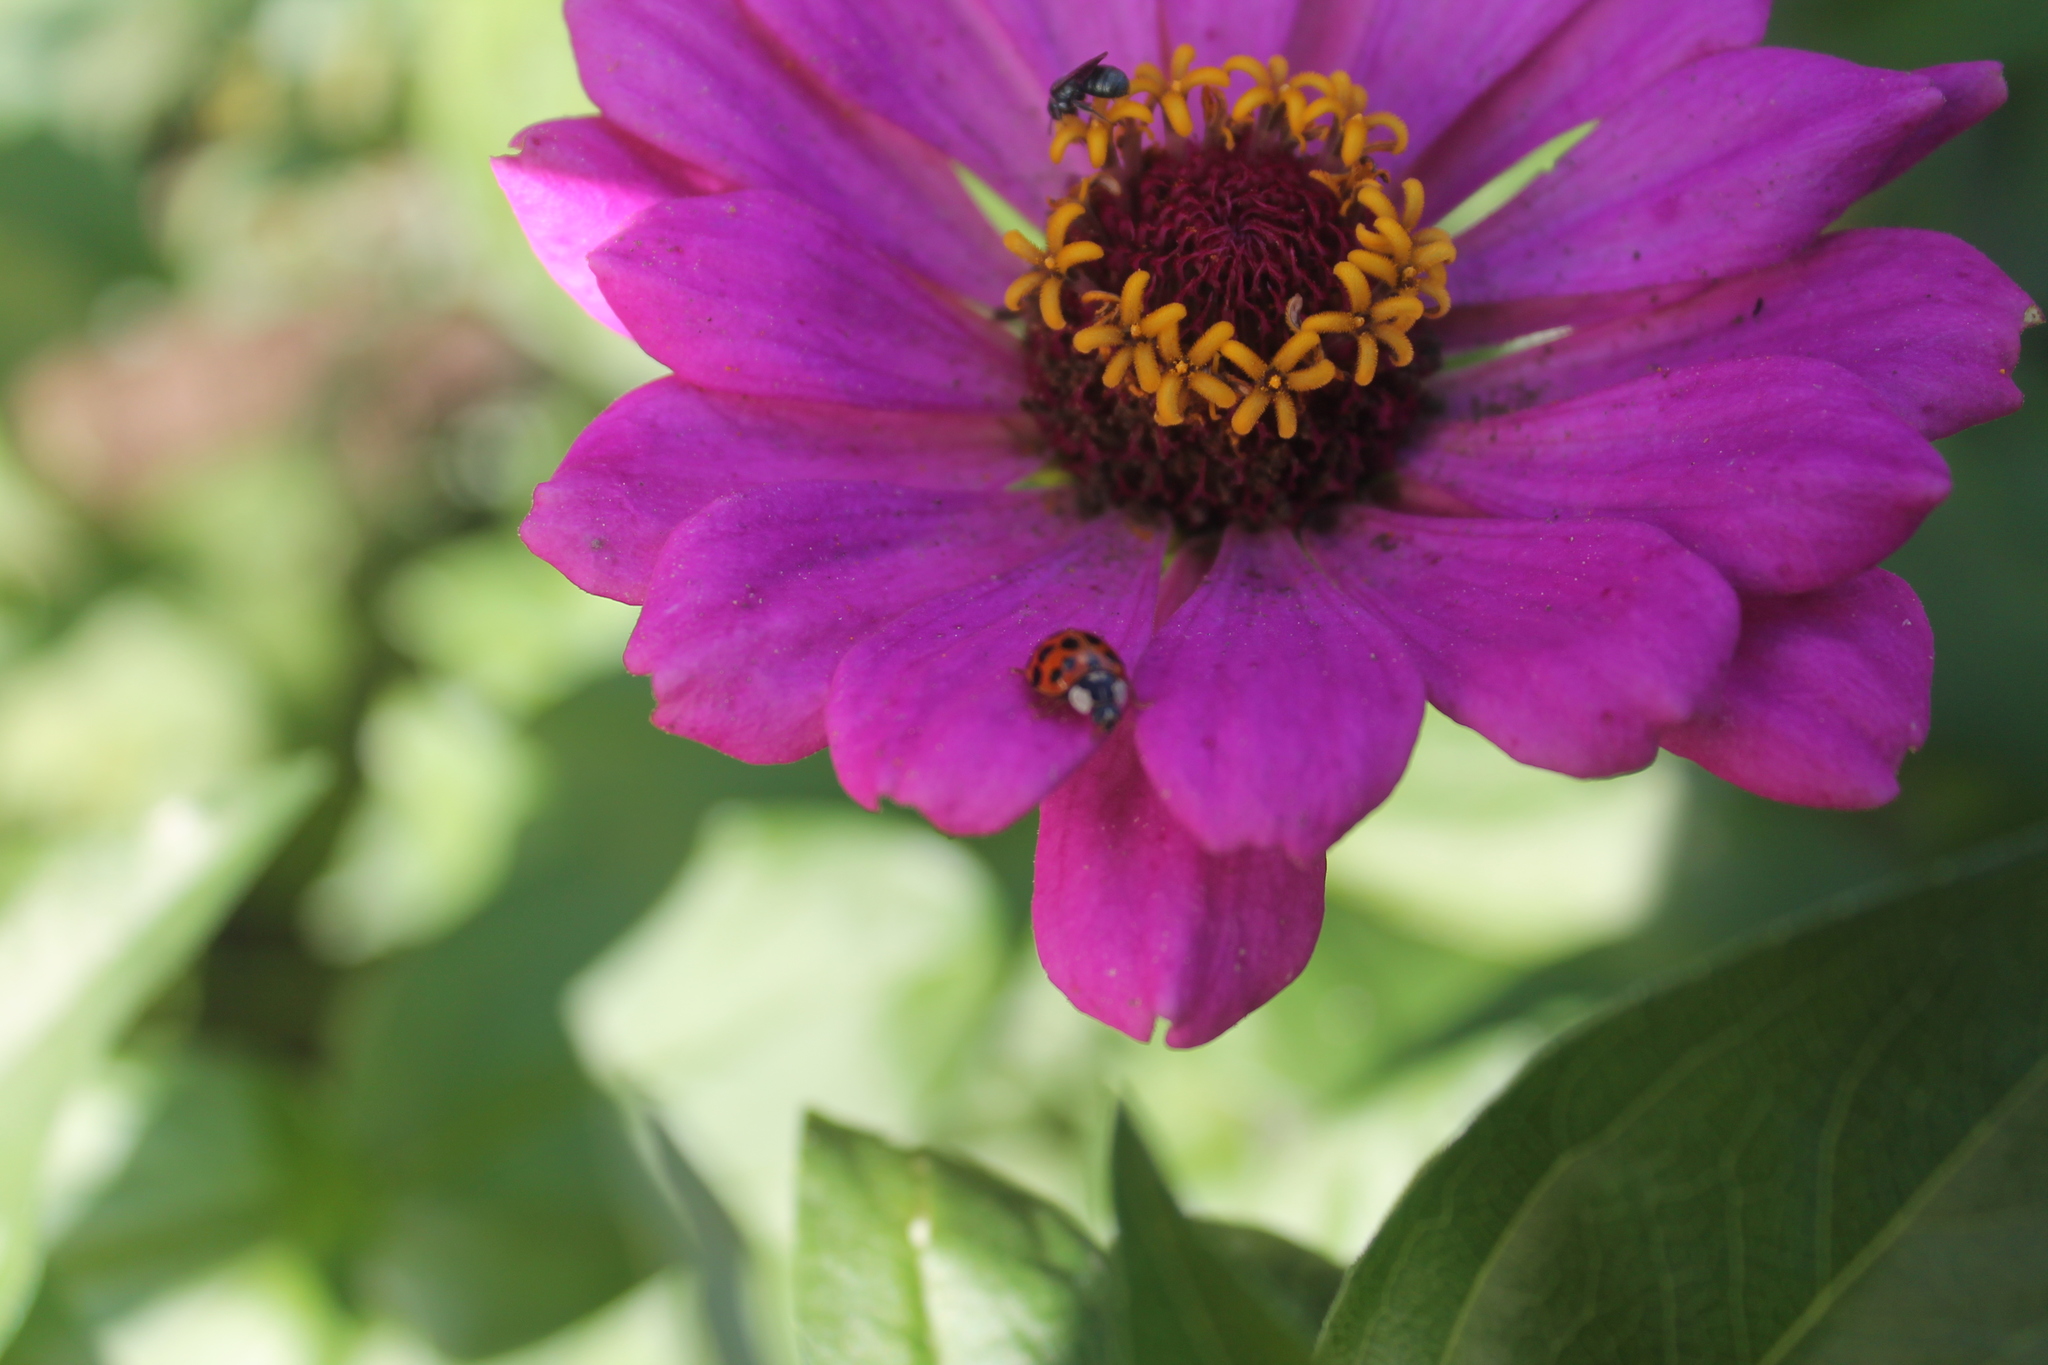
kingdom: Animalia
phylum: Arthropoda
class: Insecta
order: Coleoptera
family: Coccinellidae
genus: Harmonia
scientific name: Harmonia axyridis
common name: Harlequin ladybird
